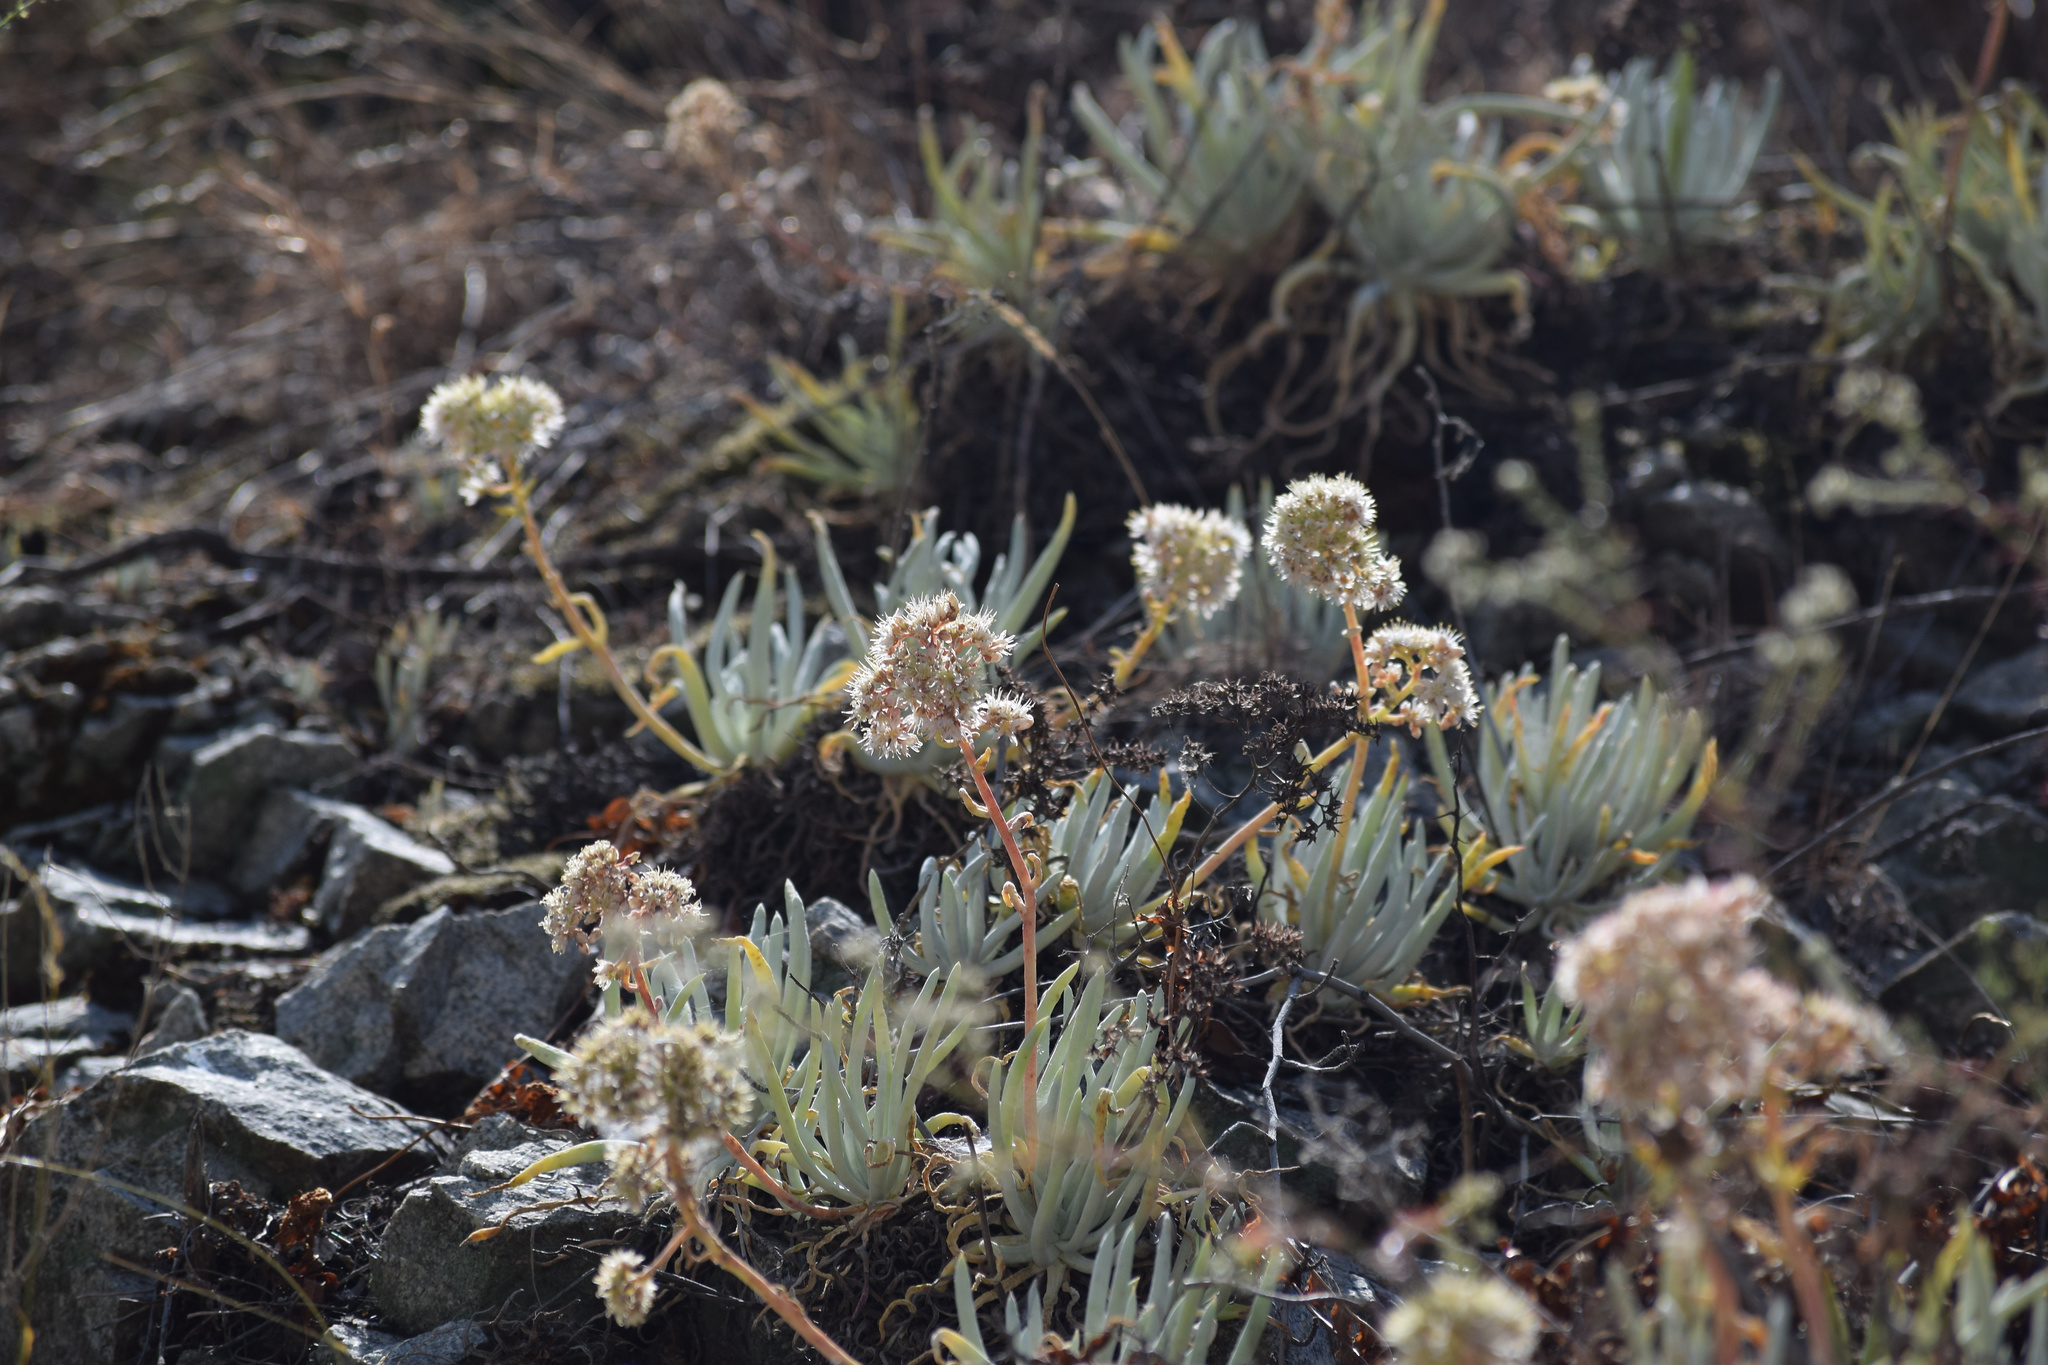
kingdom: Plantae
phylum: Tracheophyta
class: Magnoliopsida
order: Saxifragales
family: Crassulaceae
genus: Dudleya
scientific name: Dudleya densiflora
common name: San gabriel mountains dudleya
